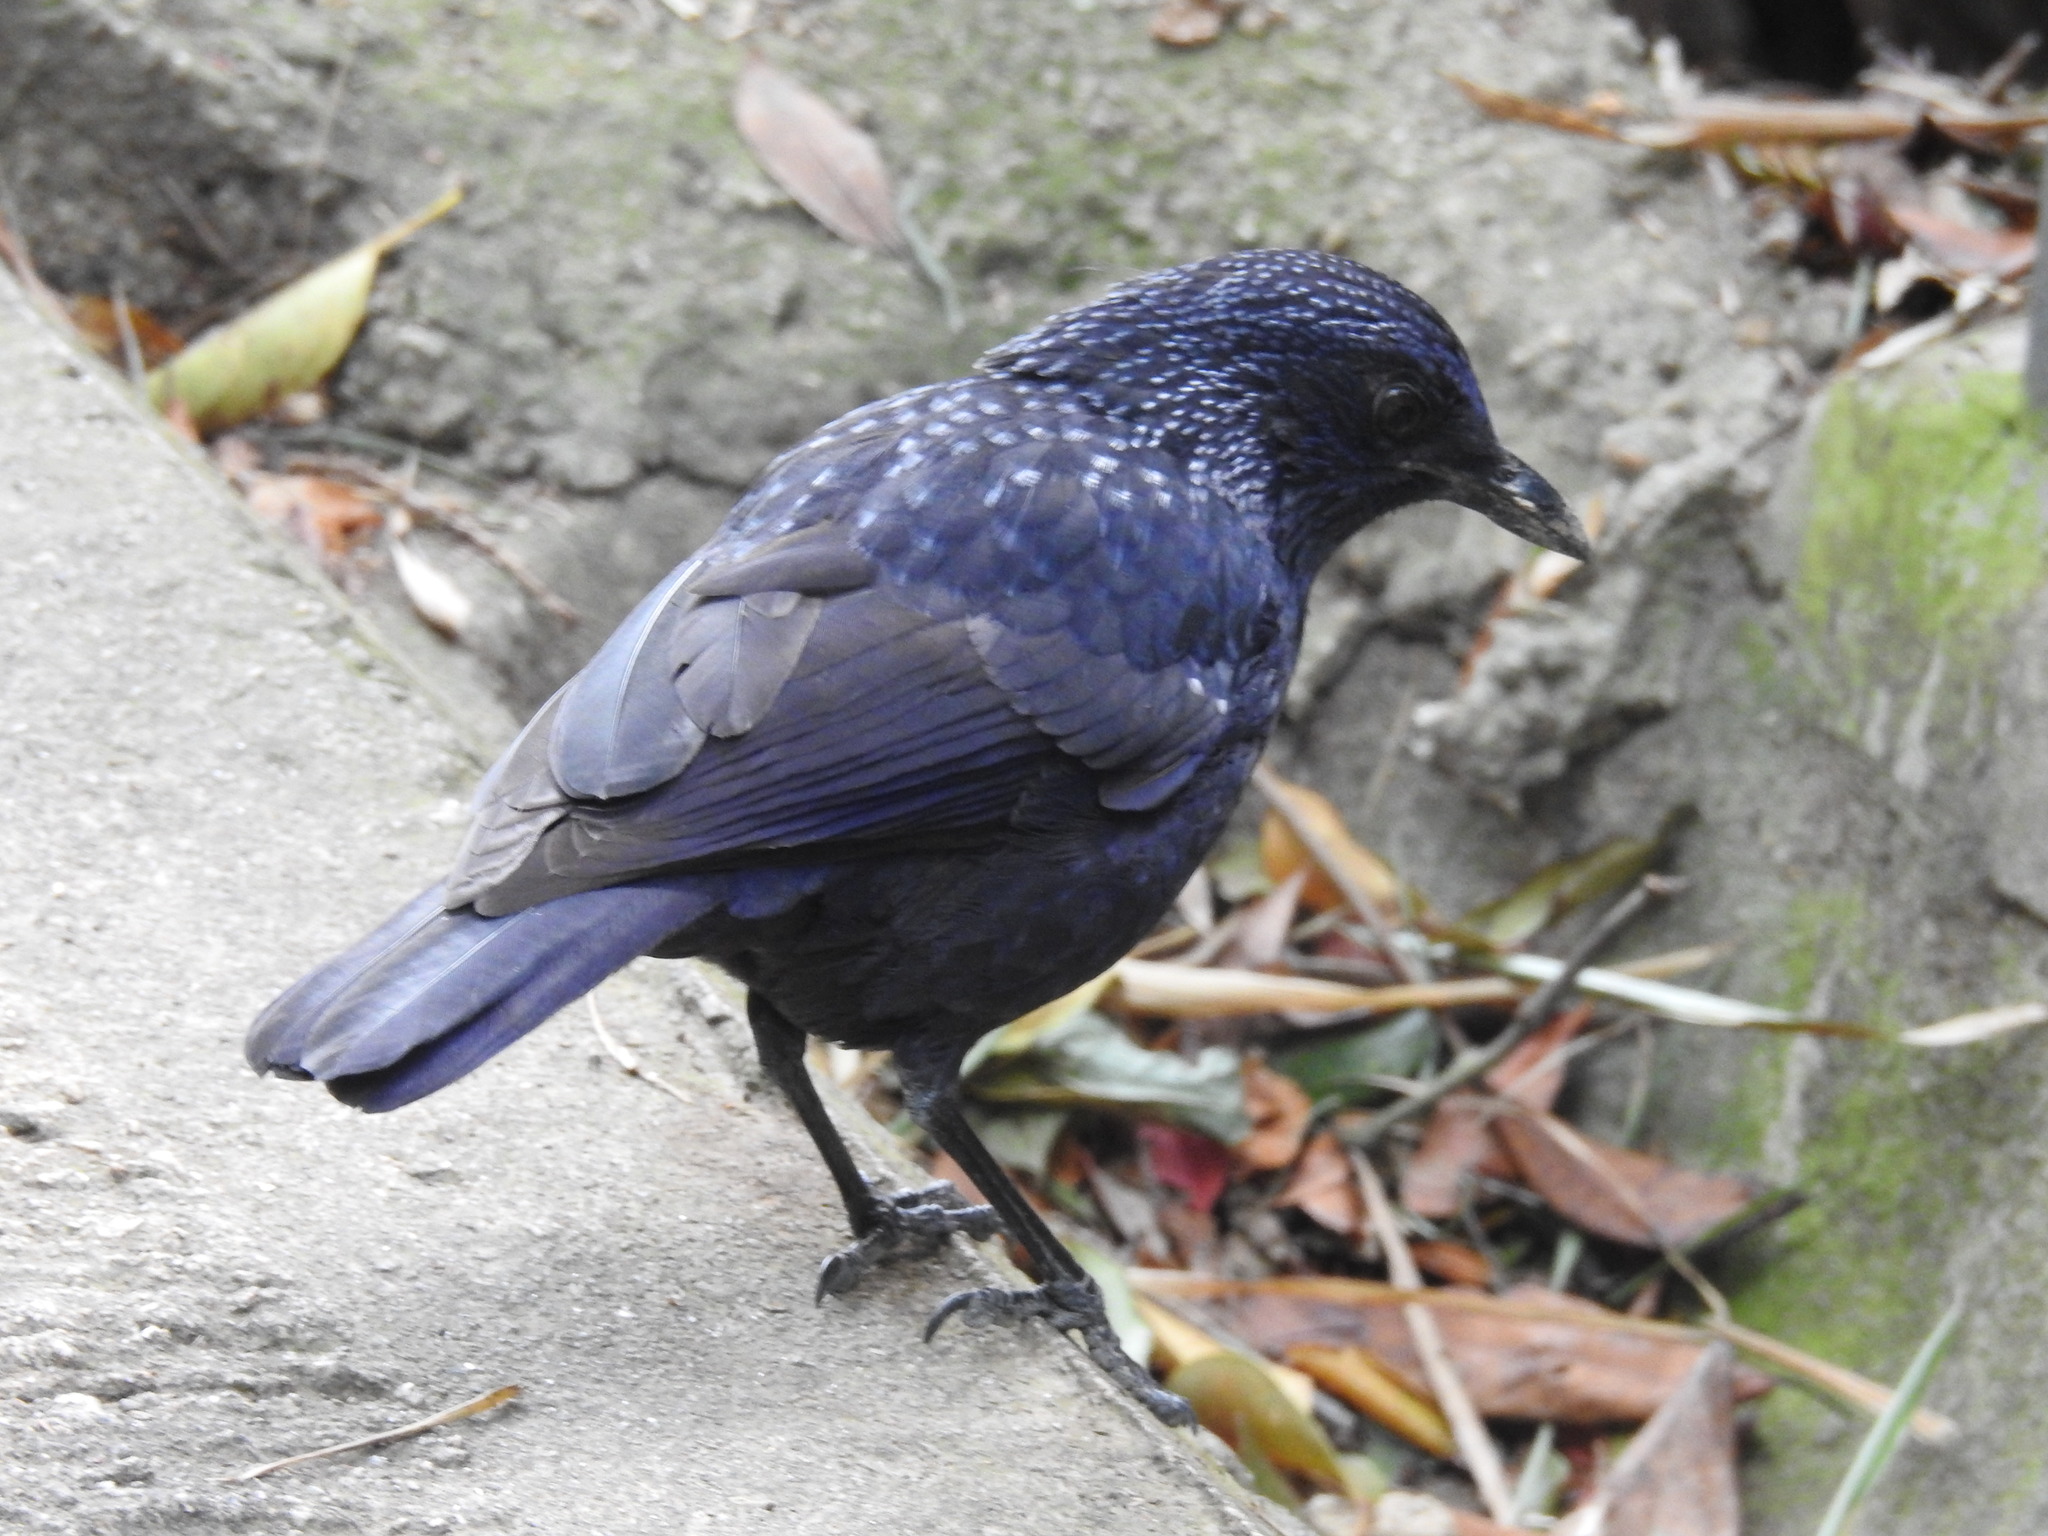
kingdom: Animalia
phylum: Chordata
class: Aves
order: Passeriformes
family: Muscicapidae
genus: Myophonus
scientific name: Myophonus caeruleus
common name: Blue whistling-thrush
